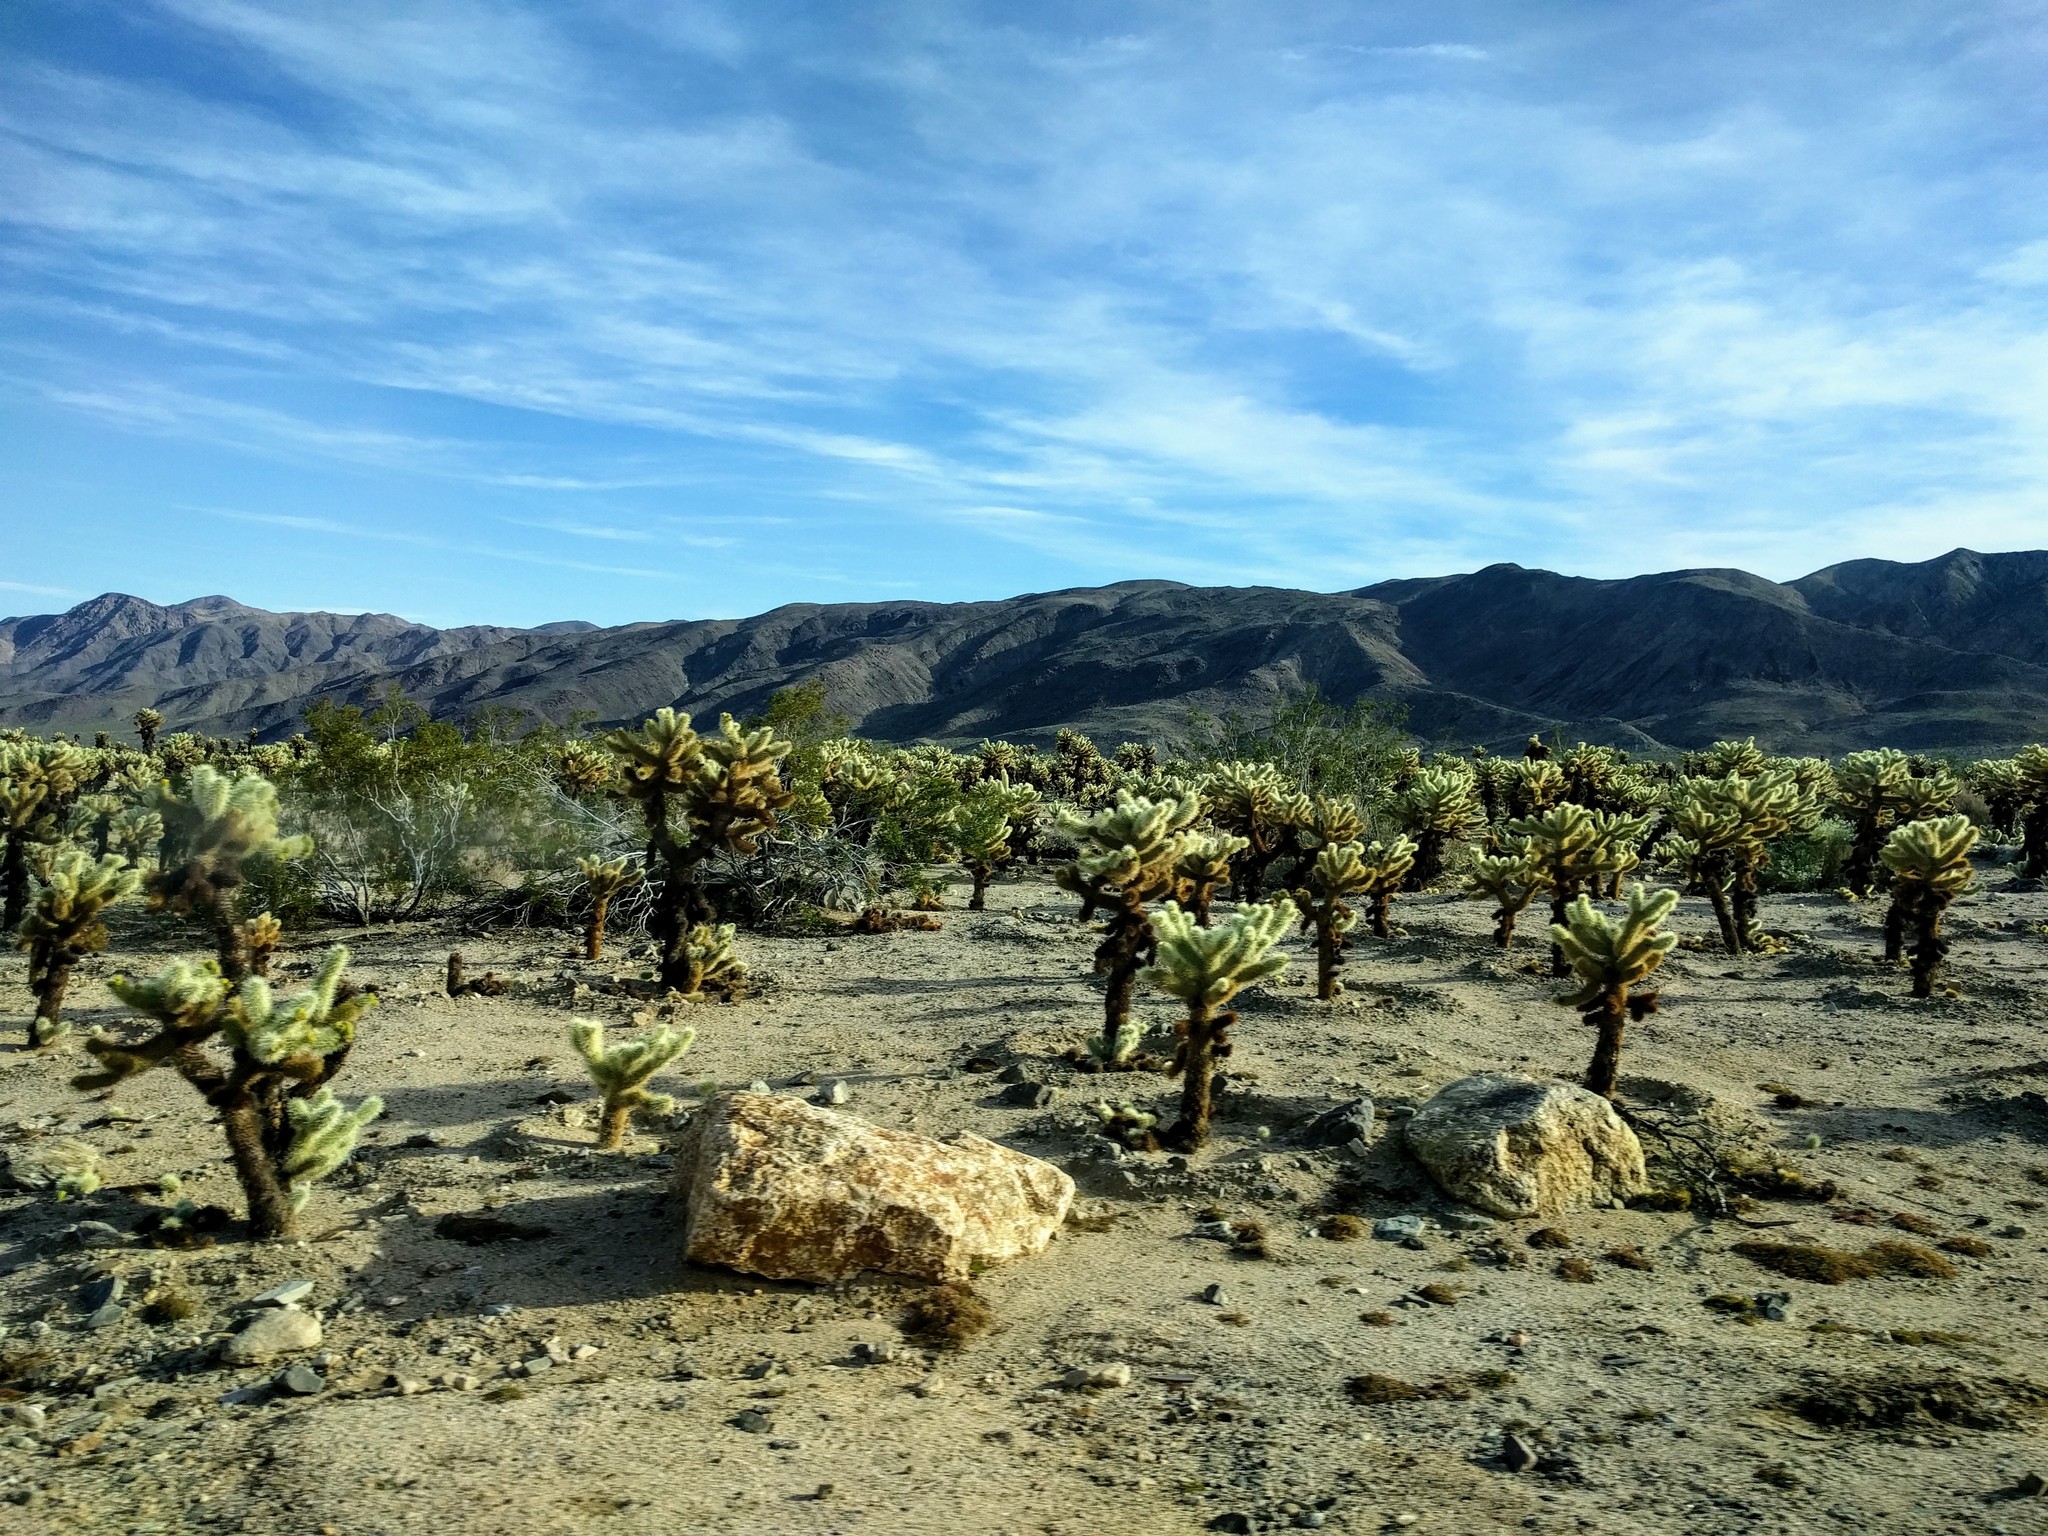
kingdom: Plantae
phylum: Tracheophyta
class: Magnoliopsida
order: Caryophyllales
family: Cactaceae
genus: Cylindropuntia
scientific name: Cylindropuntia fosbergii
